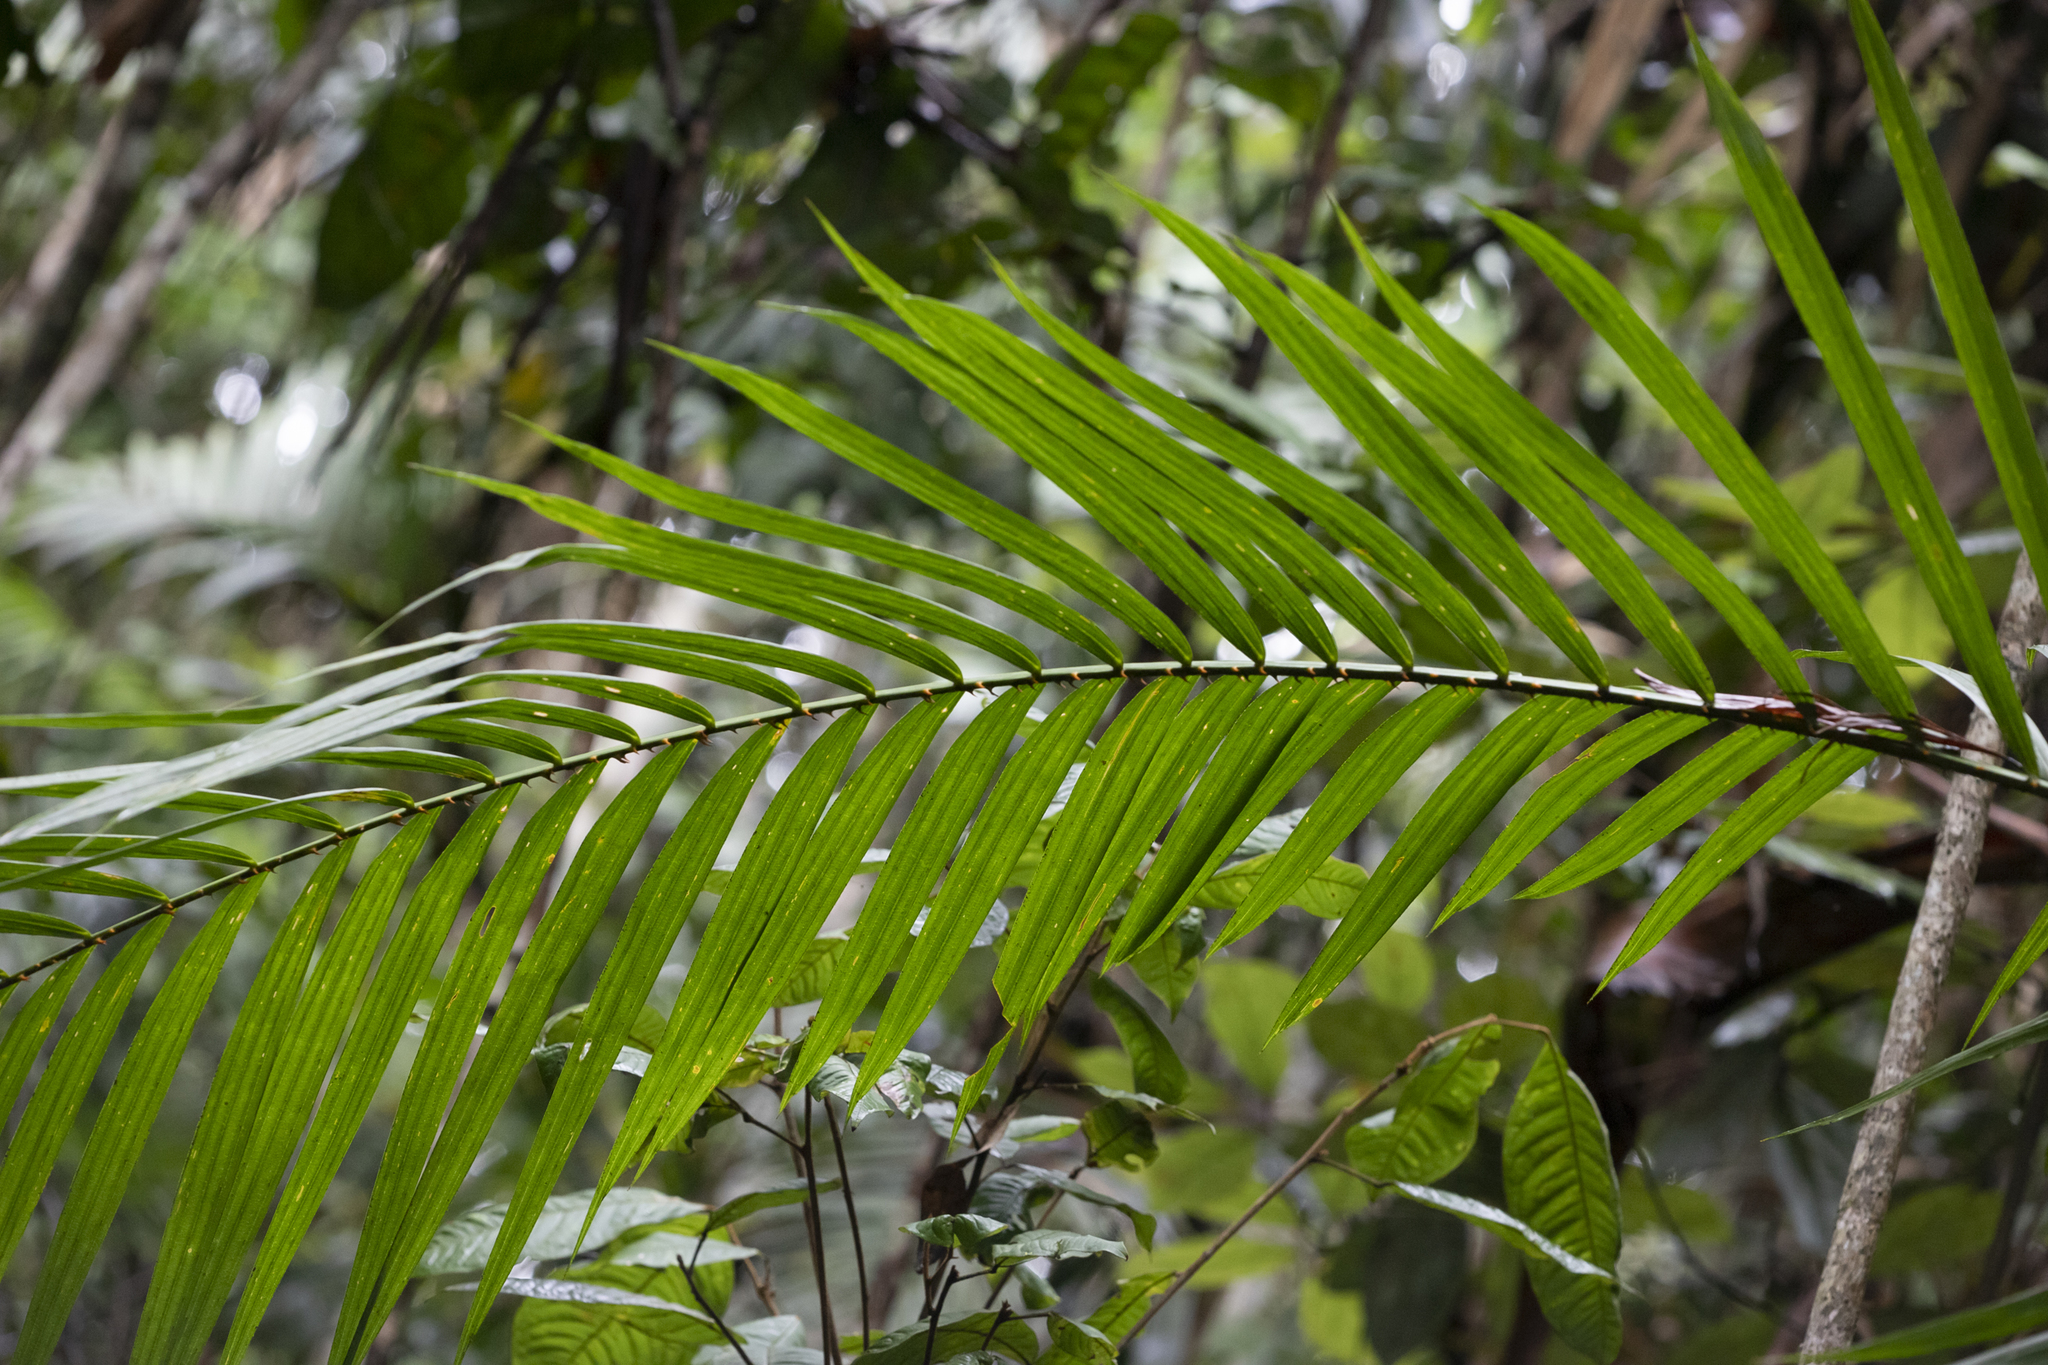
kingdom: Plantae
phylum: Tracheophyta
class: Liliopsida
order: Arecales
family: Arecaceae
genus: Calamus
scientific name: Calamus moti
